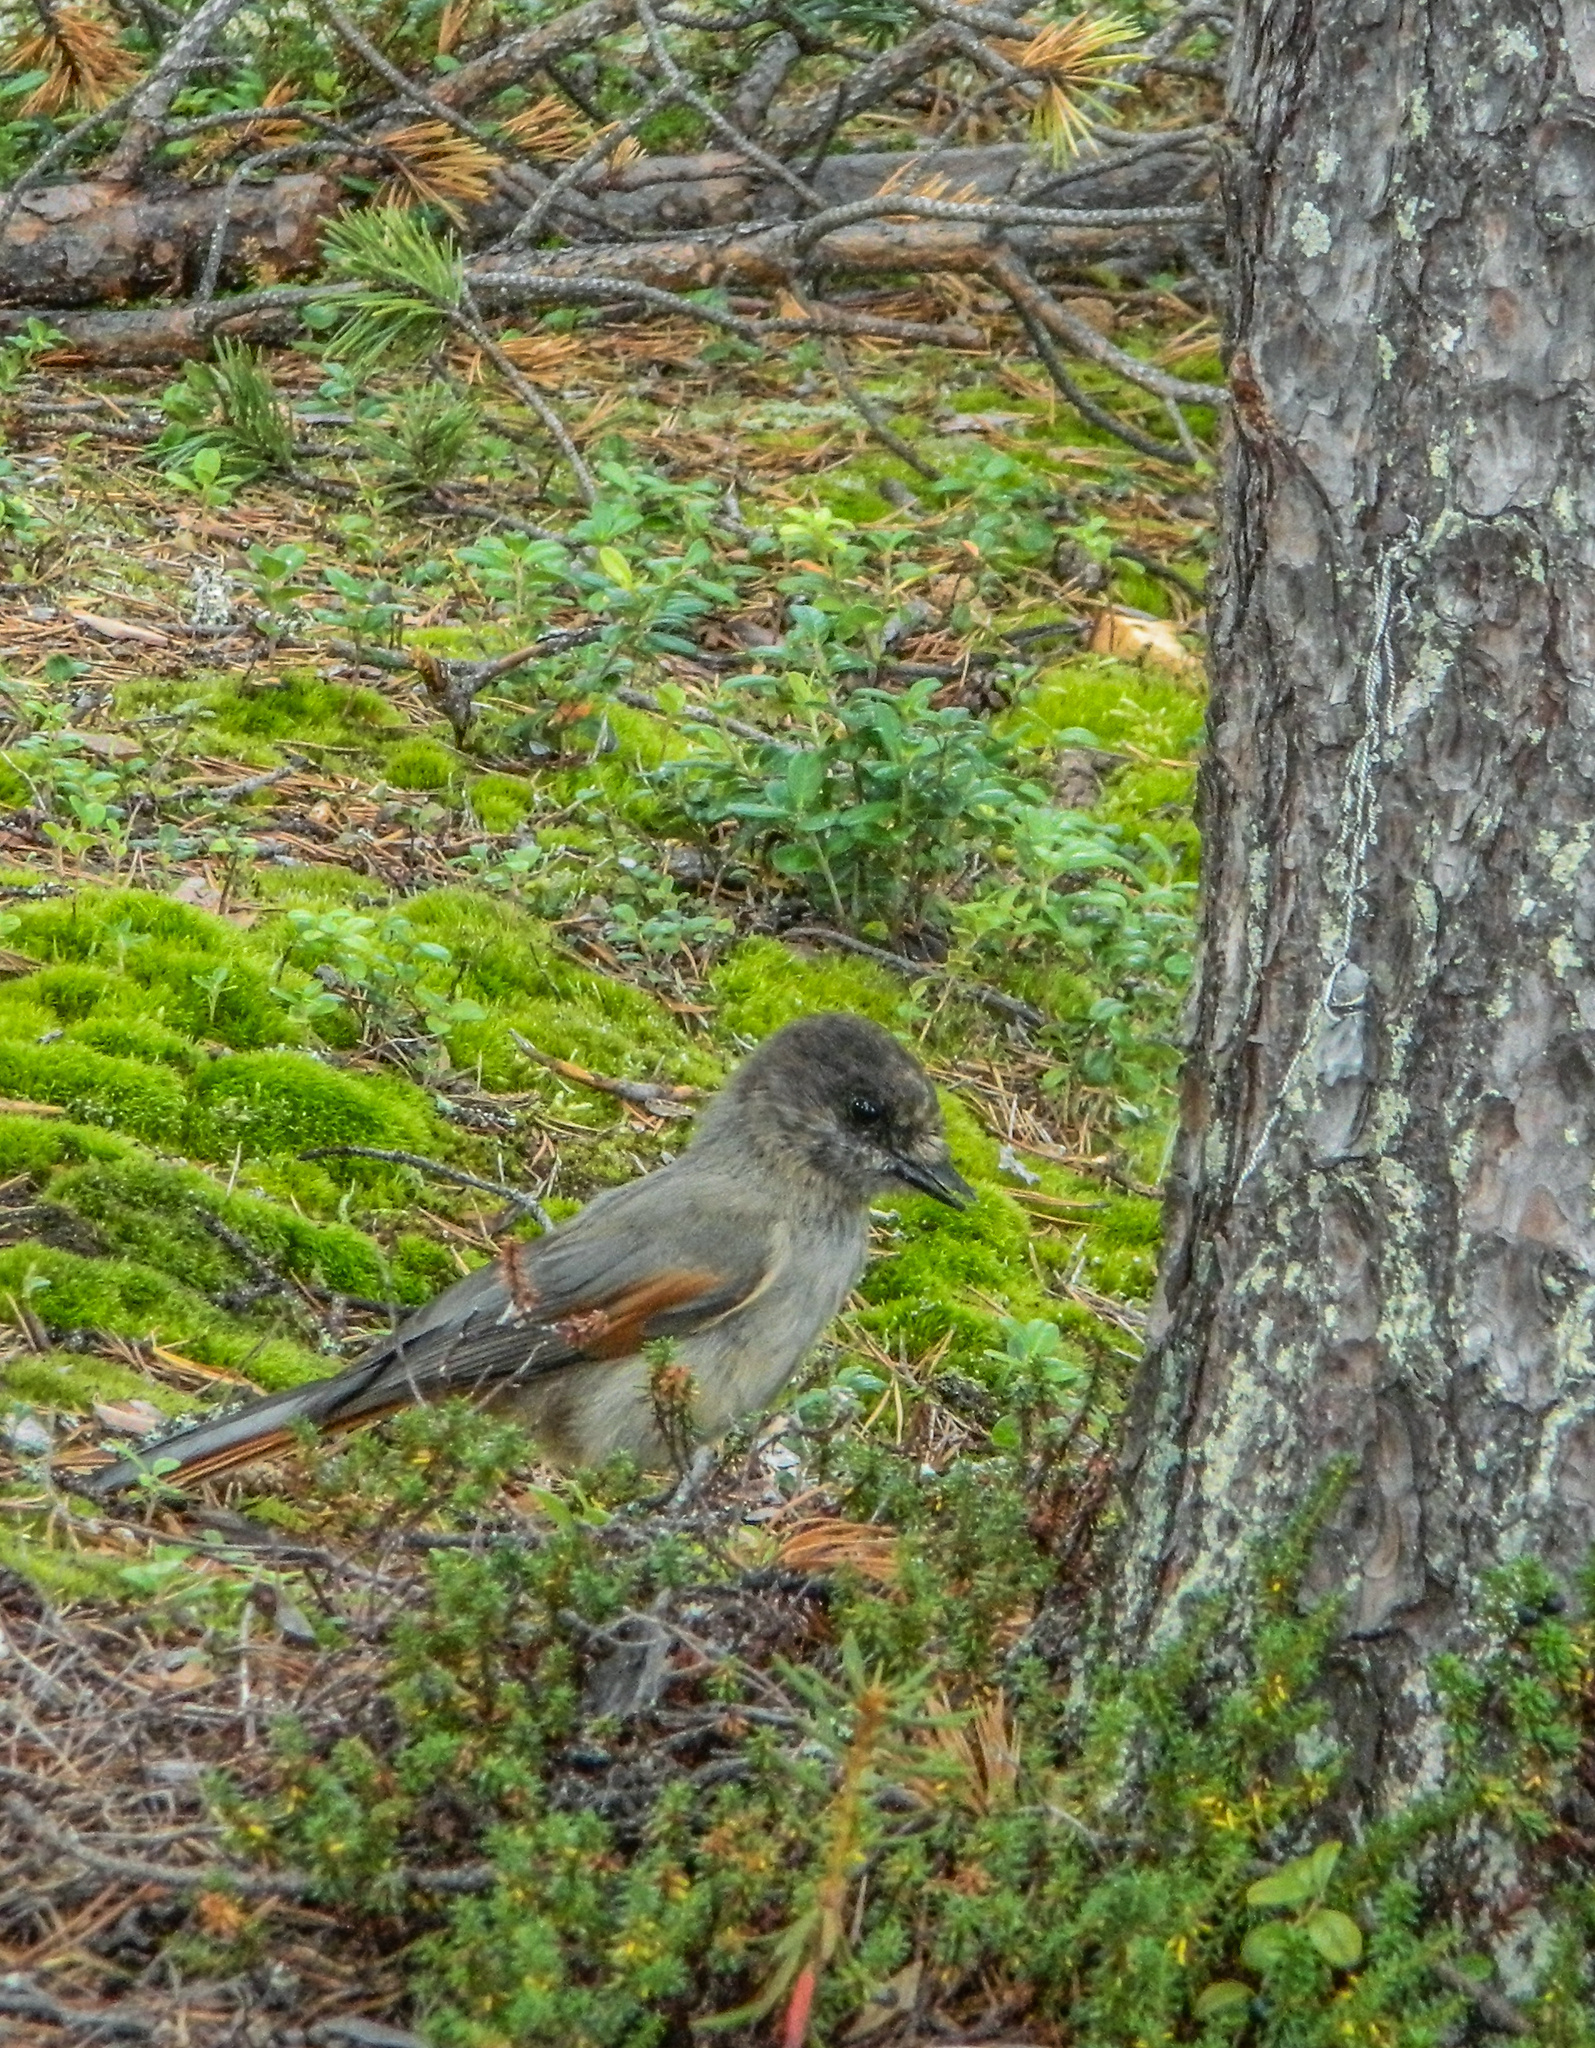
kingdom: Animalia
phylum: Chordata
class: Aves
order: Passeriformes
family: Corvidae
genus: Perisoreus
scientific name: Perisoreus infaustus
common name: Siberian jay
